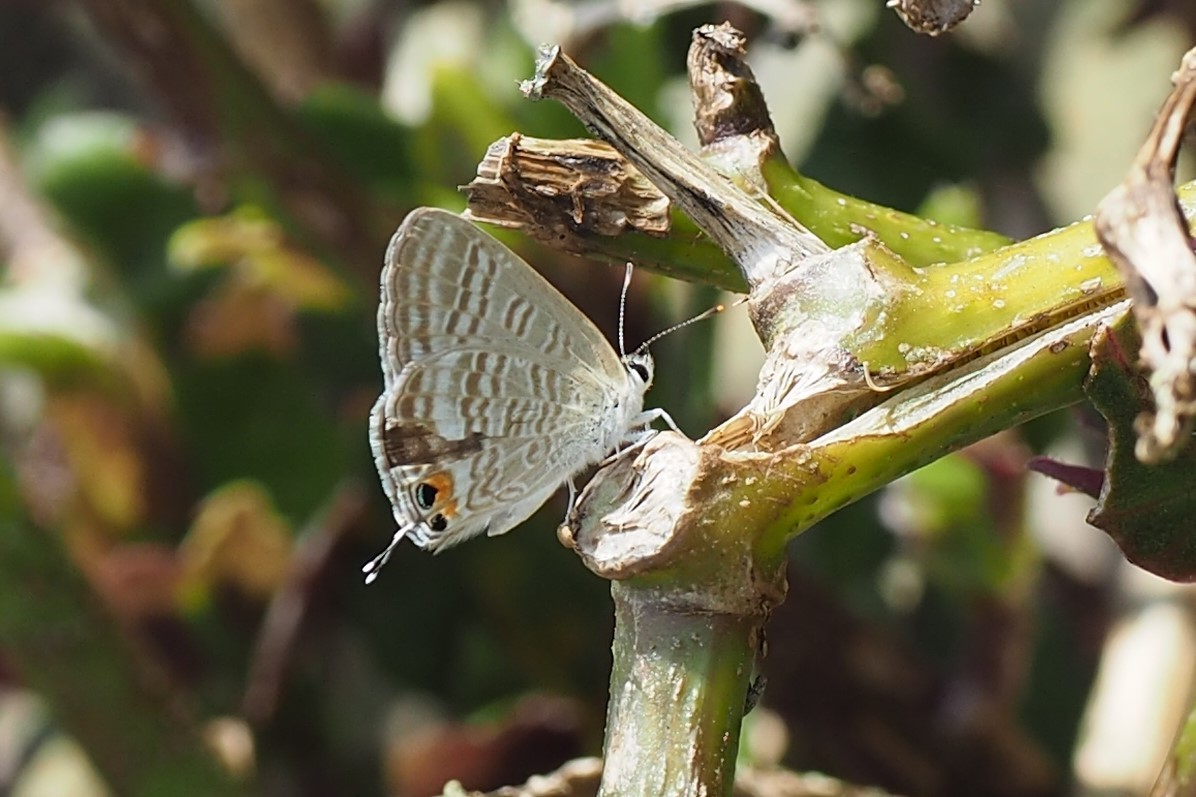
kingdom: Animalia
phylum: Arthropoda
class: Insecta
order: Lepidoptera
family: Lycaenidae
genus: Lampides
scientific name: Lampides boeticus
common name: Long-tailed blue
